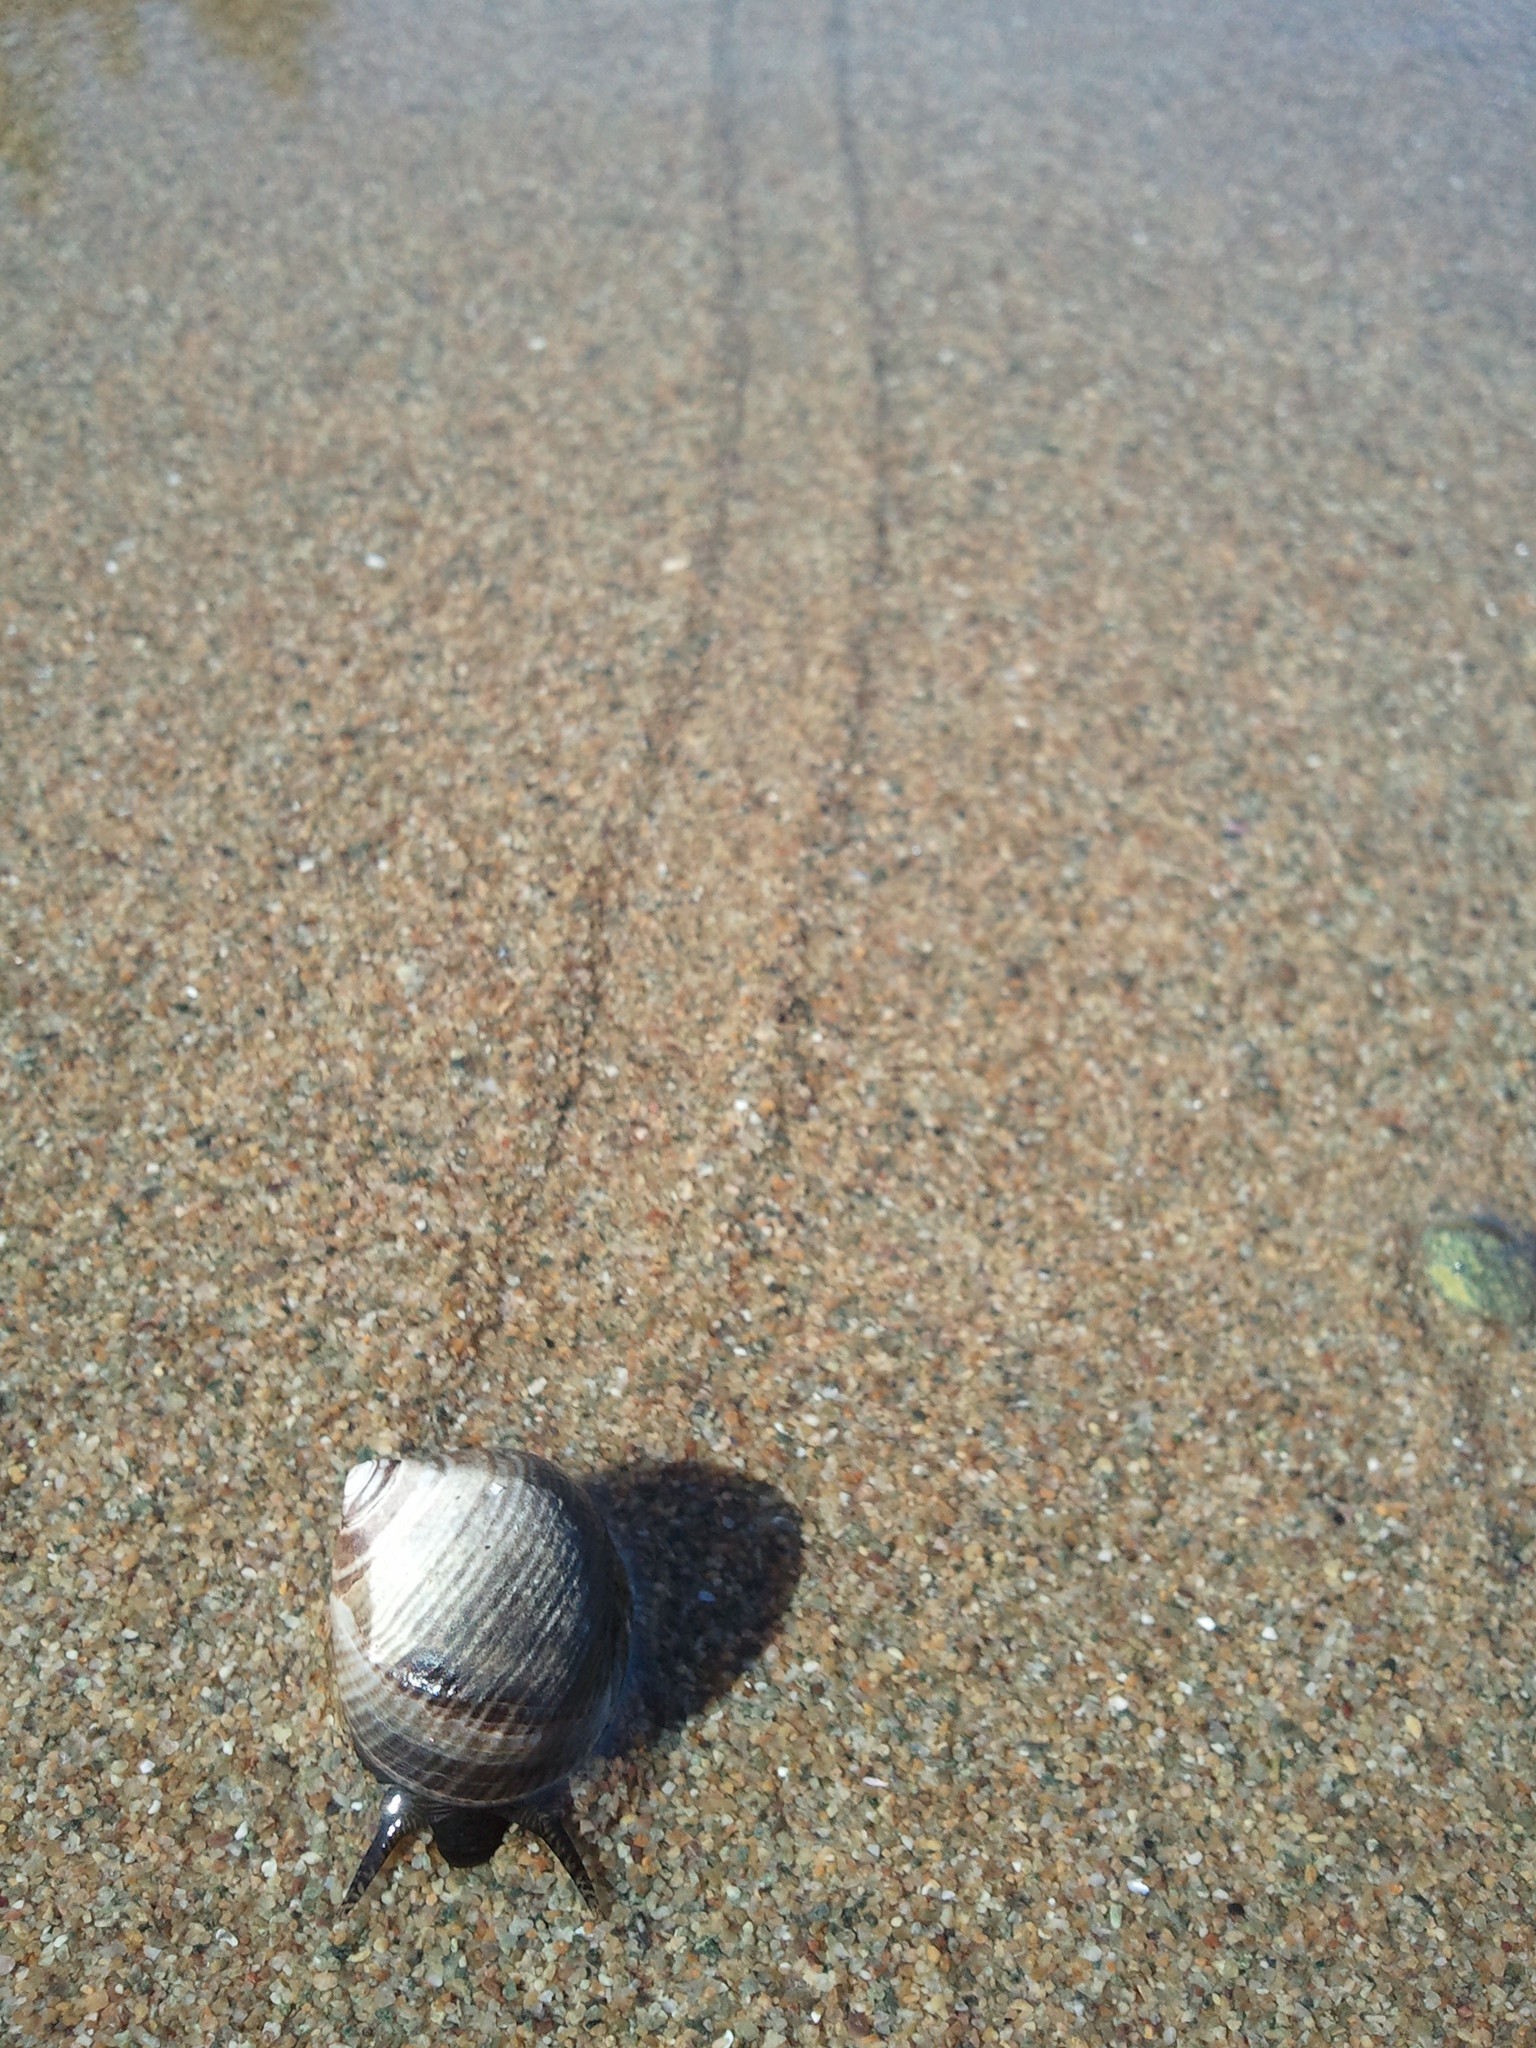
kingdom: Animalia
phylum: Mollusca
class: Gastropoda
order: Littorinimorpha
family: Littorinidae
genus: Littorina
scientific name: Littorina littorea
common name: Common periwinkle
